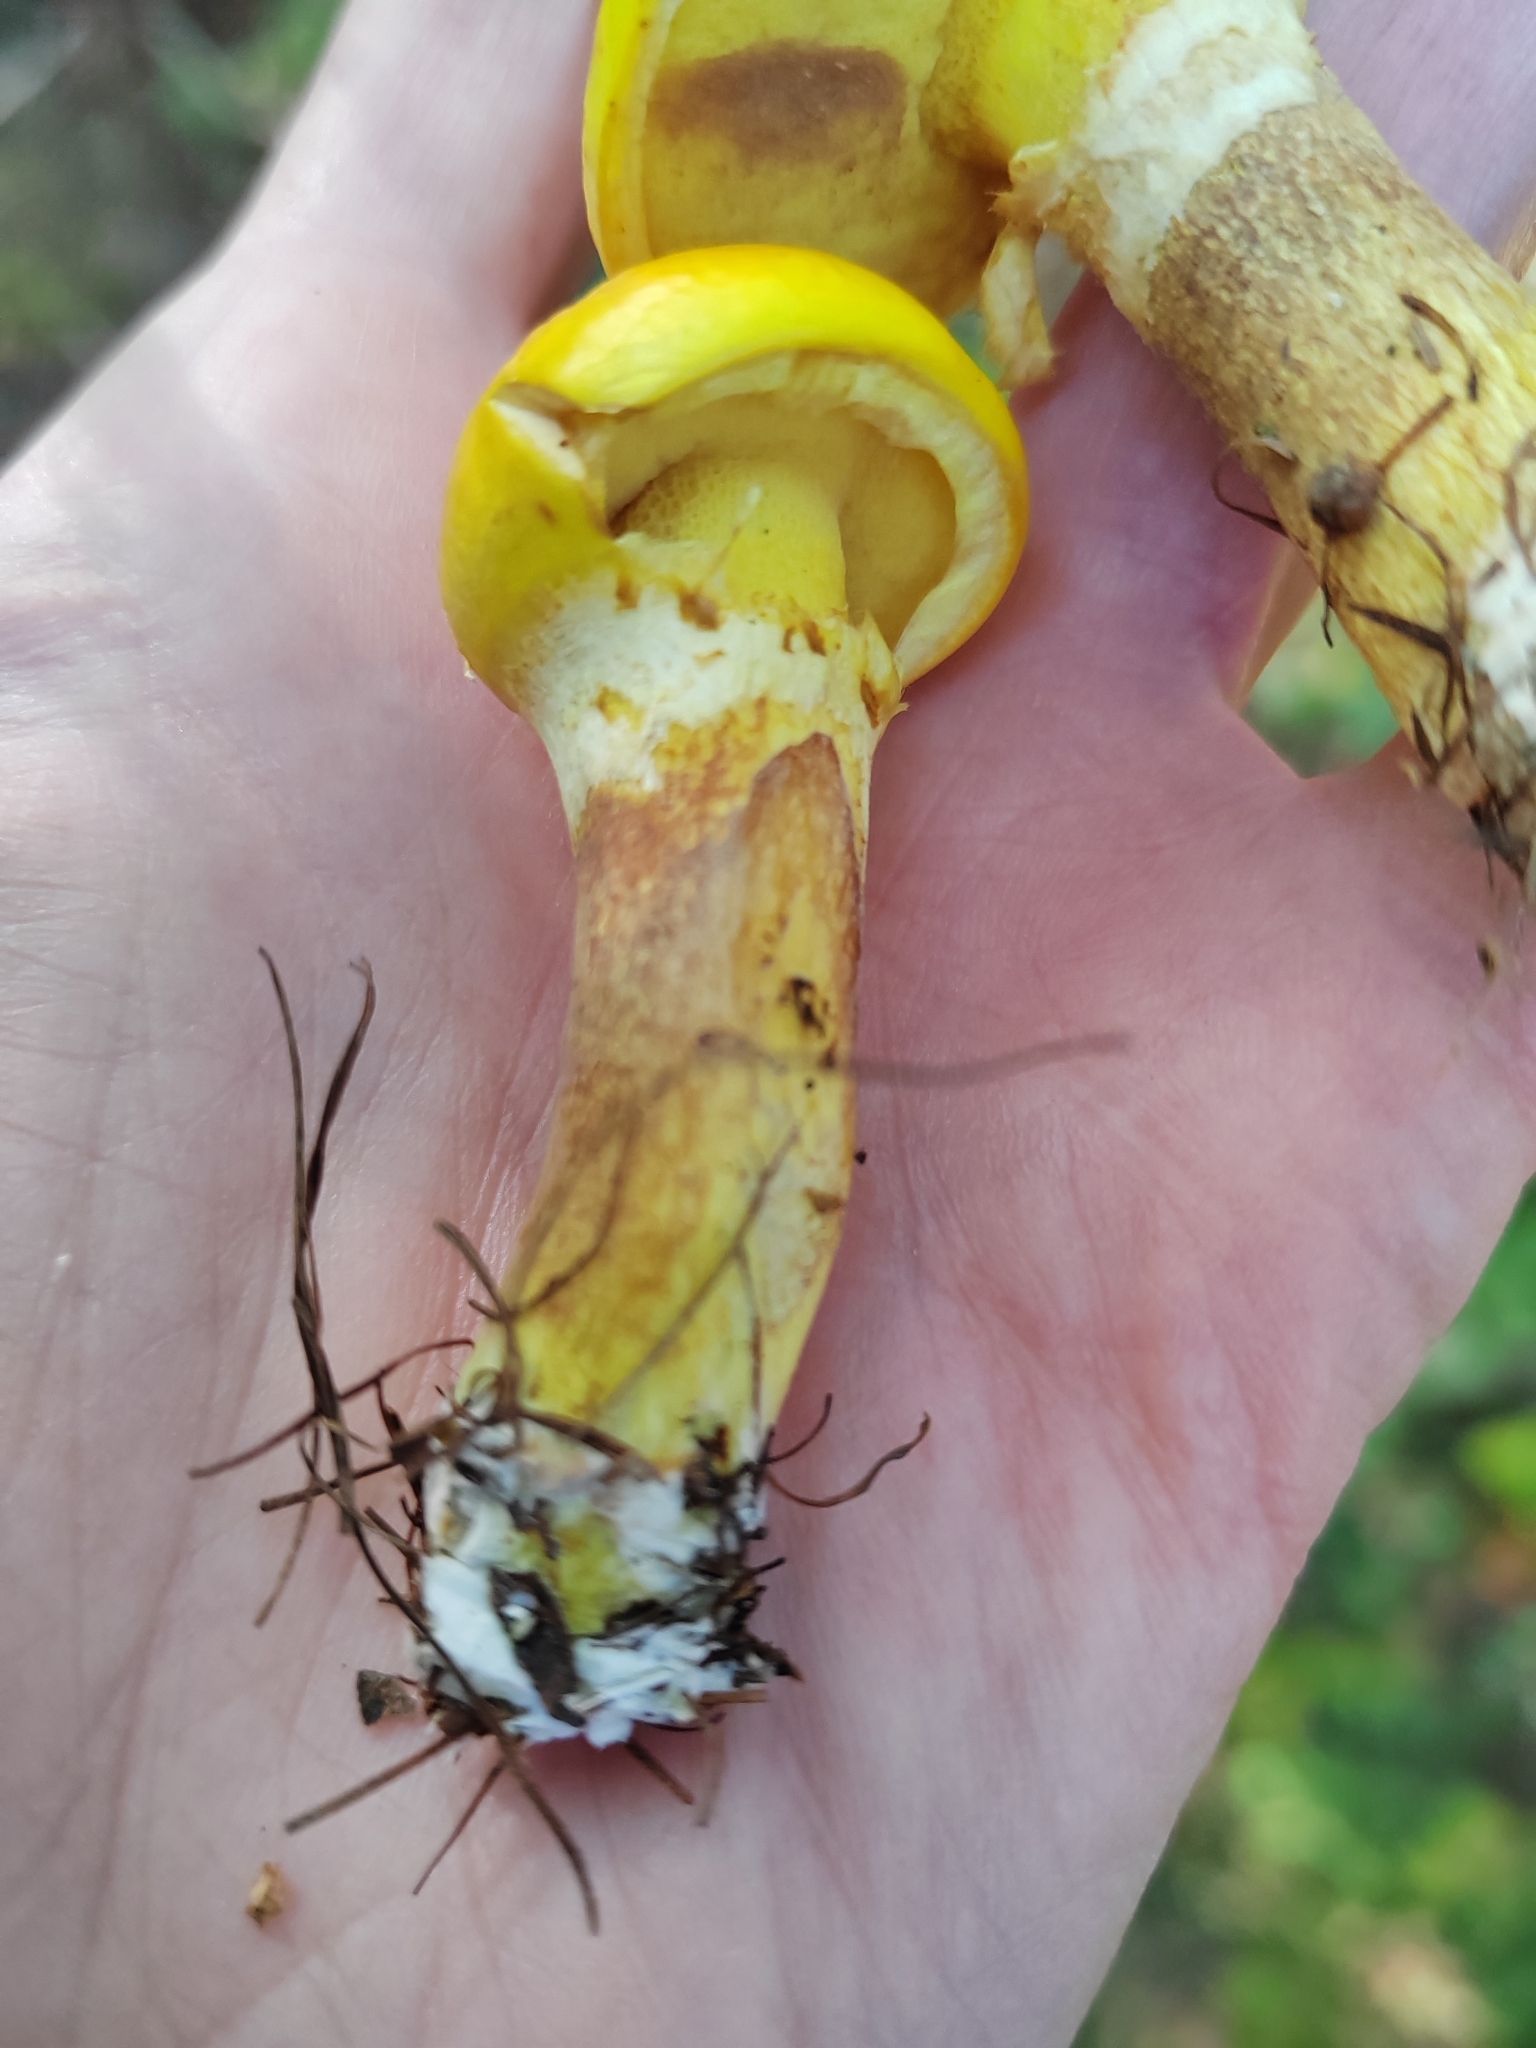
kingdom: Fungi
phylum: Basidiomycota
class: Agaricomycetes
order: Boletales
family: Suillaceae
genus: Suillus
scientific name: Suillus grevillei
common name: Larch bolete
